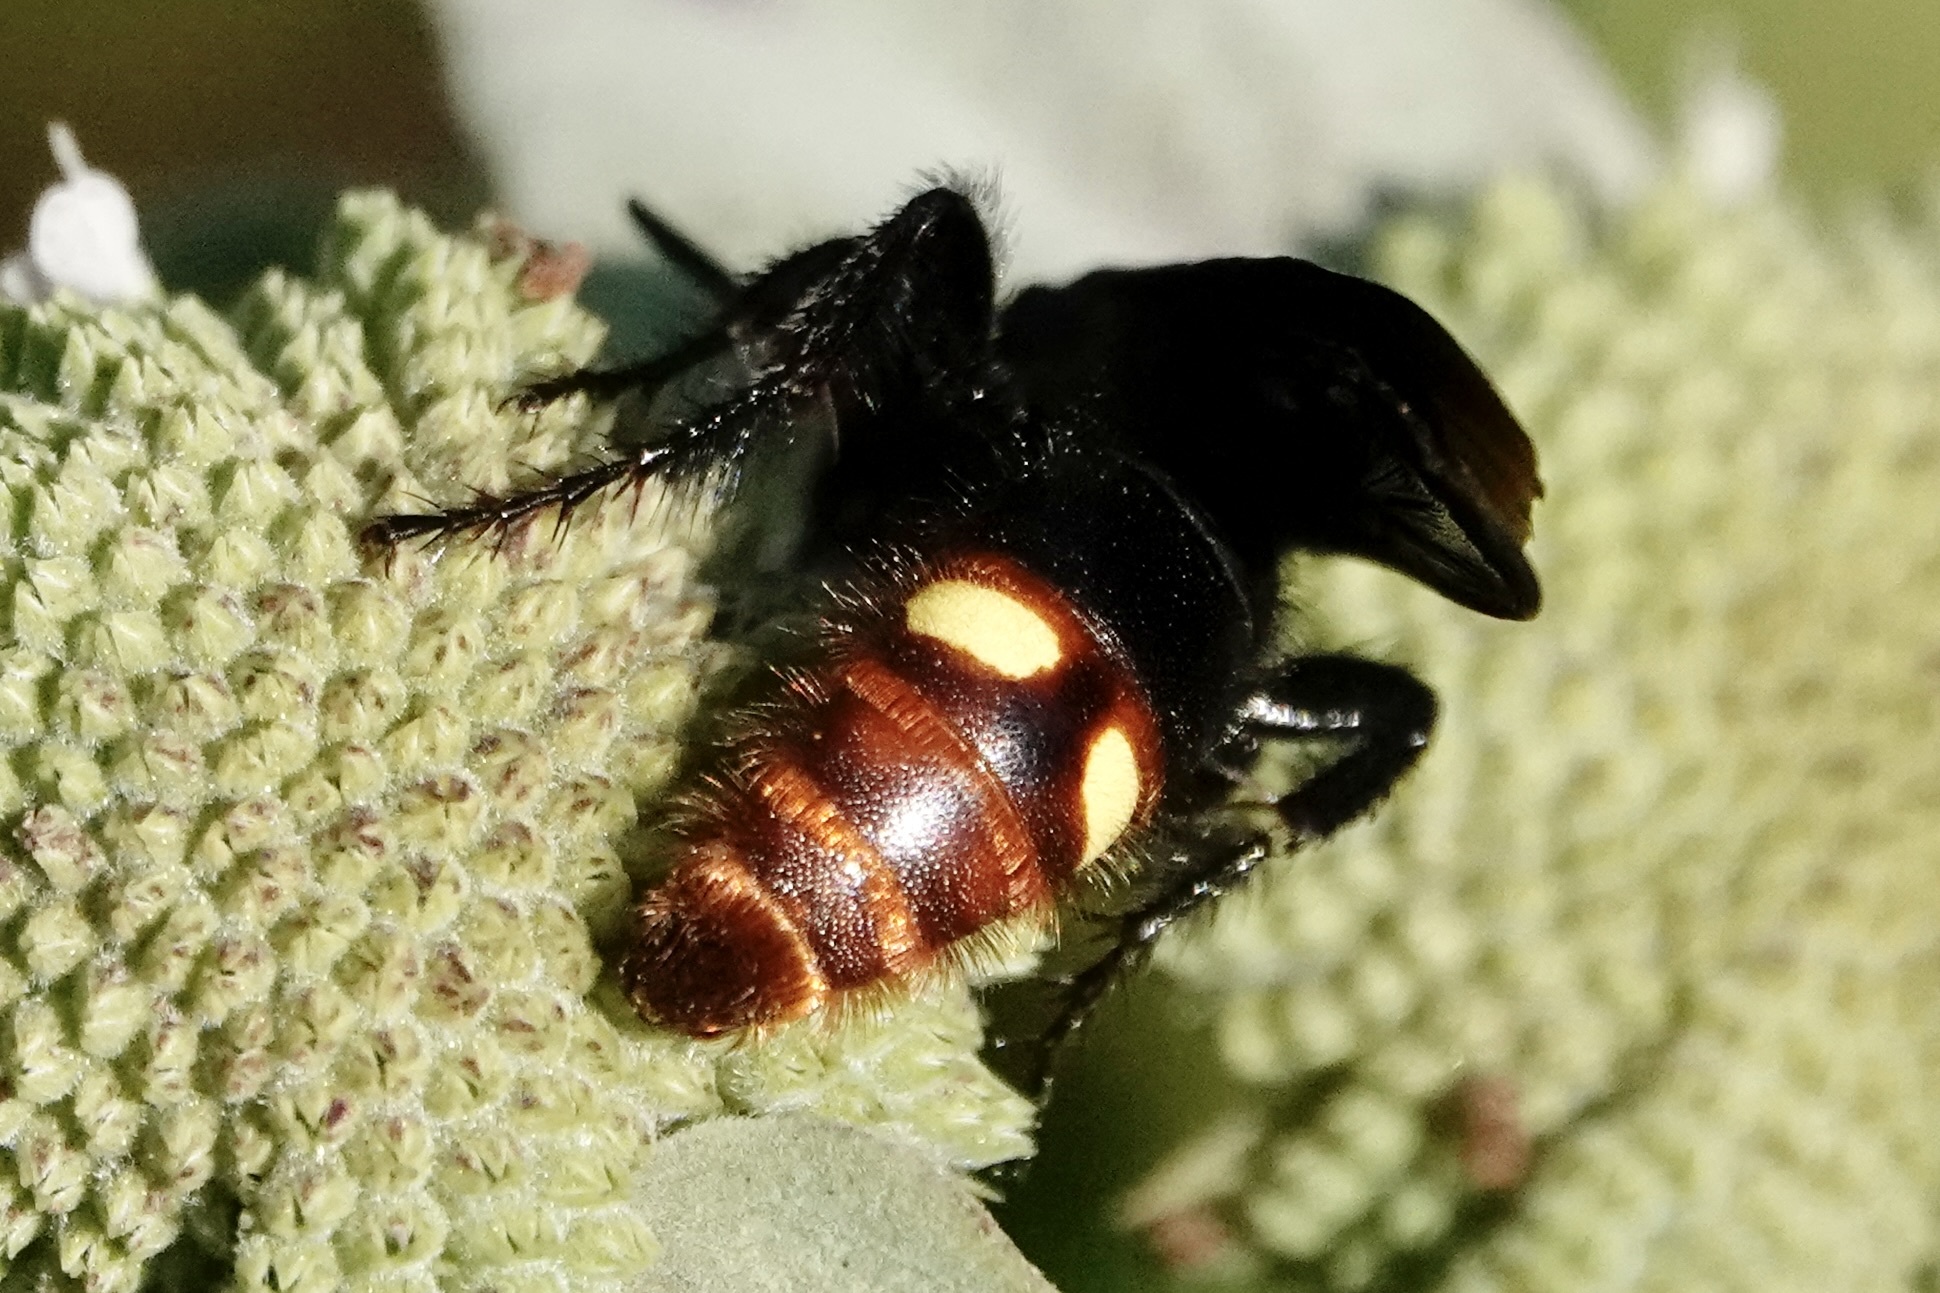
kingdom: Animalia
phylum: Arthropoda
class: Insecta
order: Hymenoptera
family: Scoliidae
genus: Scolia
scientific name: Scolia dubia
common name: Blue-winged scoliid wasp
